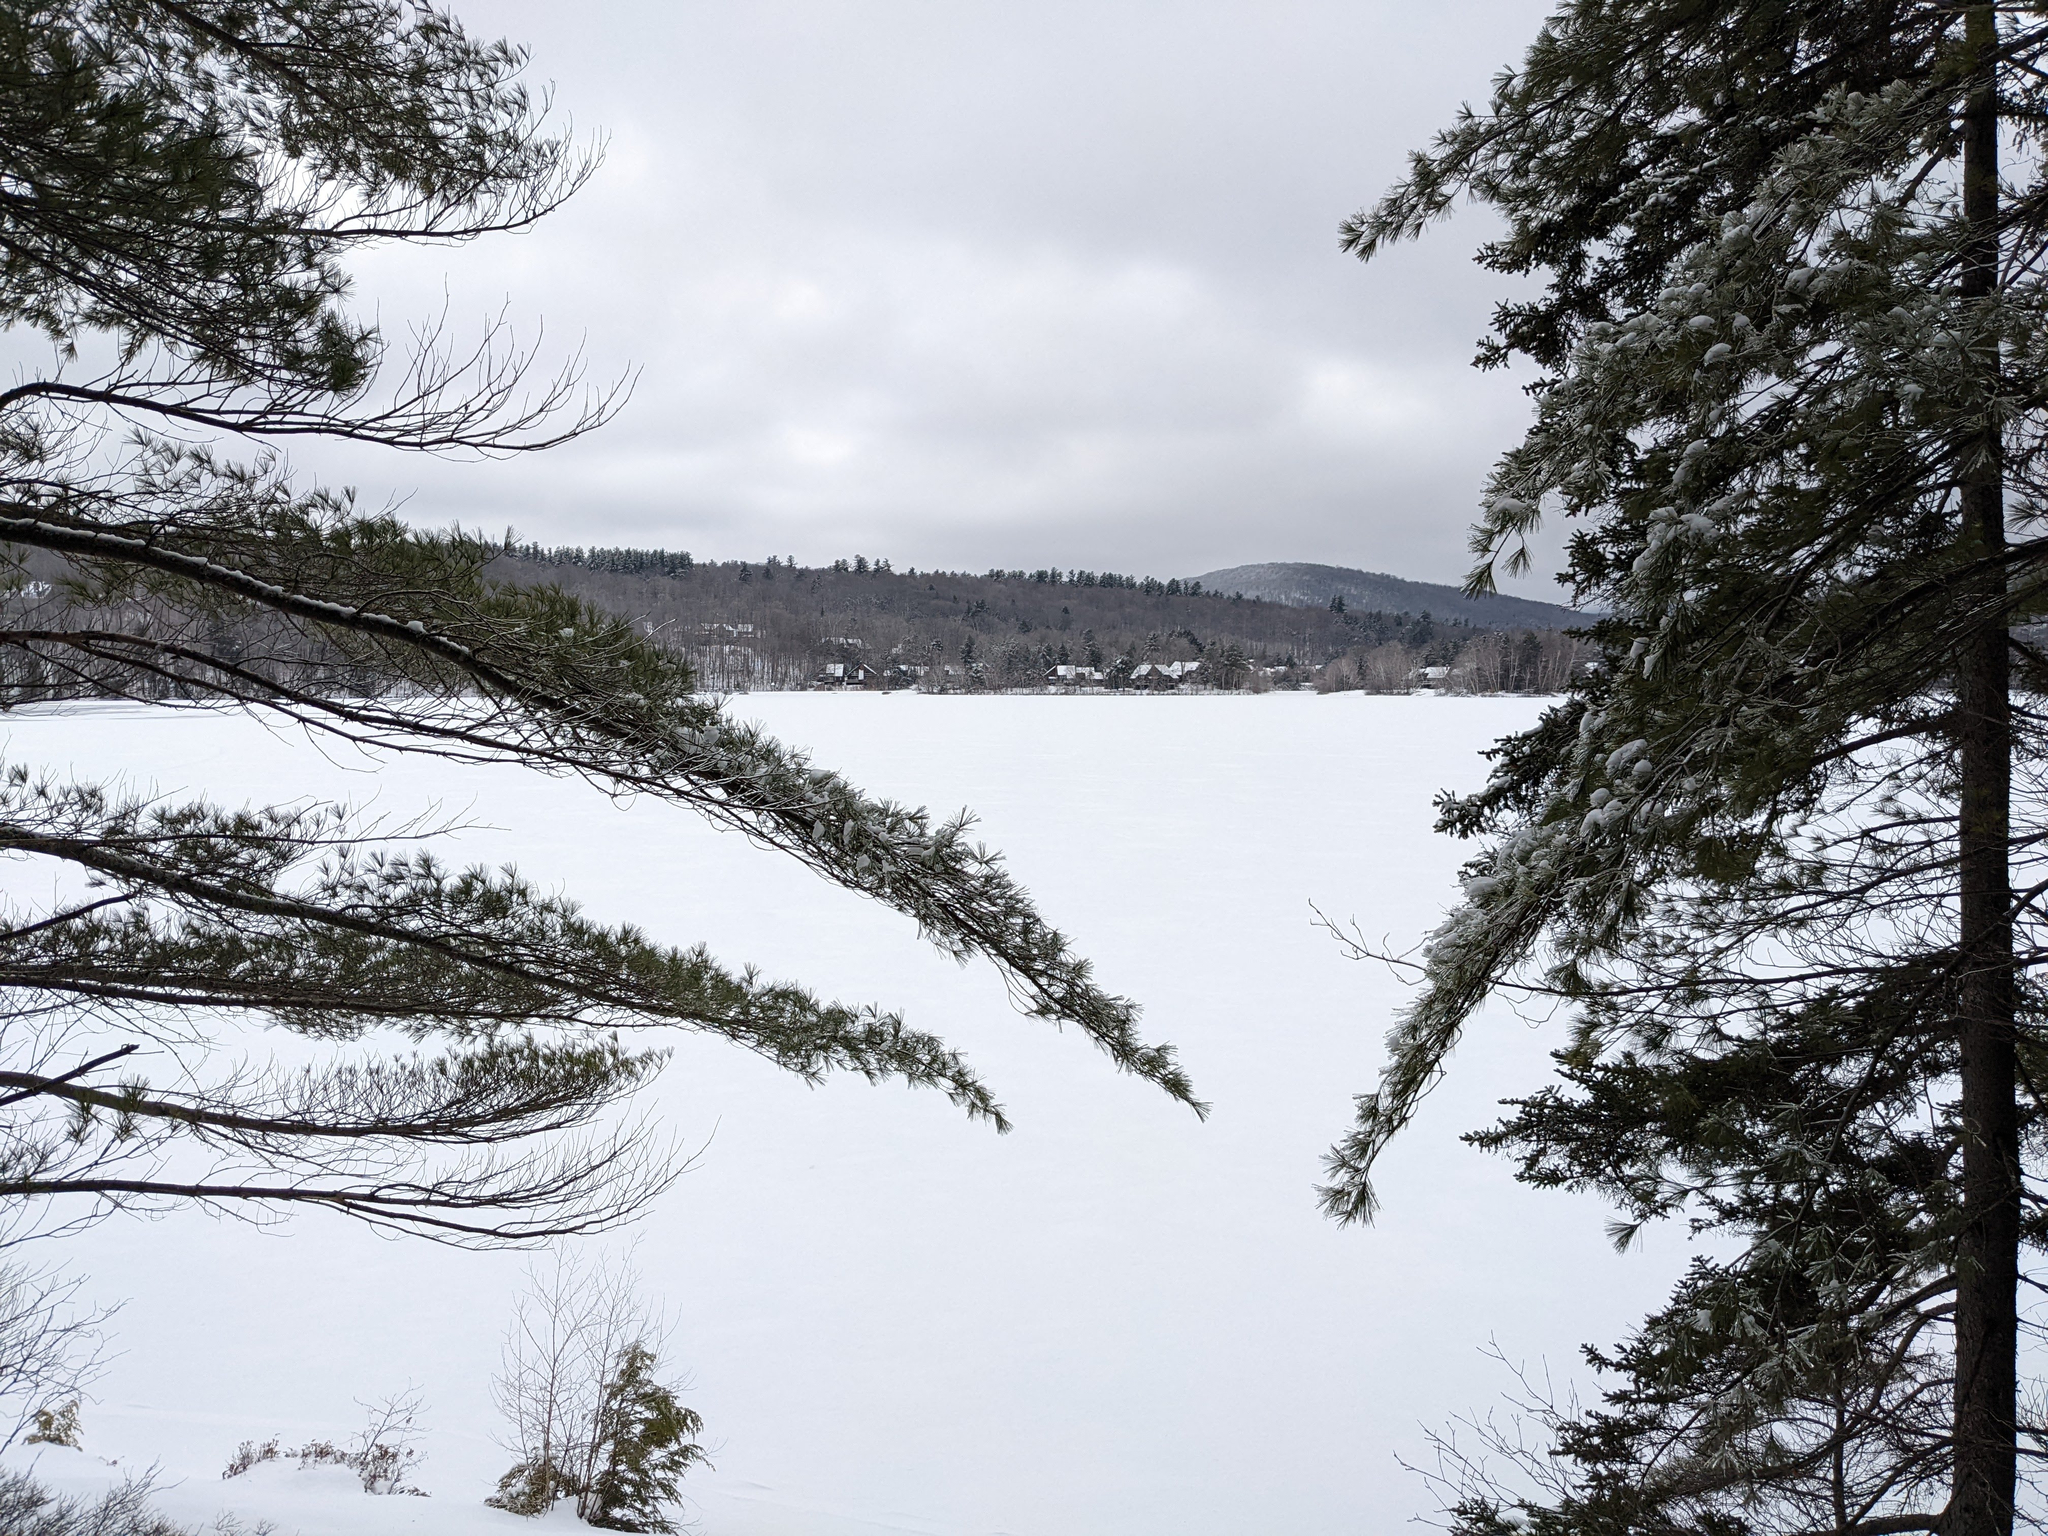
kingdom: Plantae
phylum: Tracheophyta
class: Pinopsida
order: Pinales
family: Pinaceae
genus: Pinus
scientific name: Pinus strobus
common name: Weymouth pine
